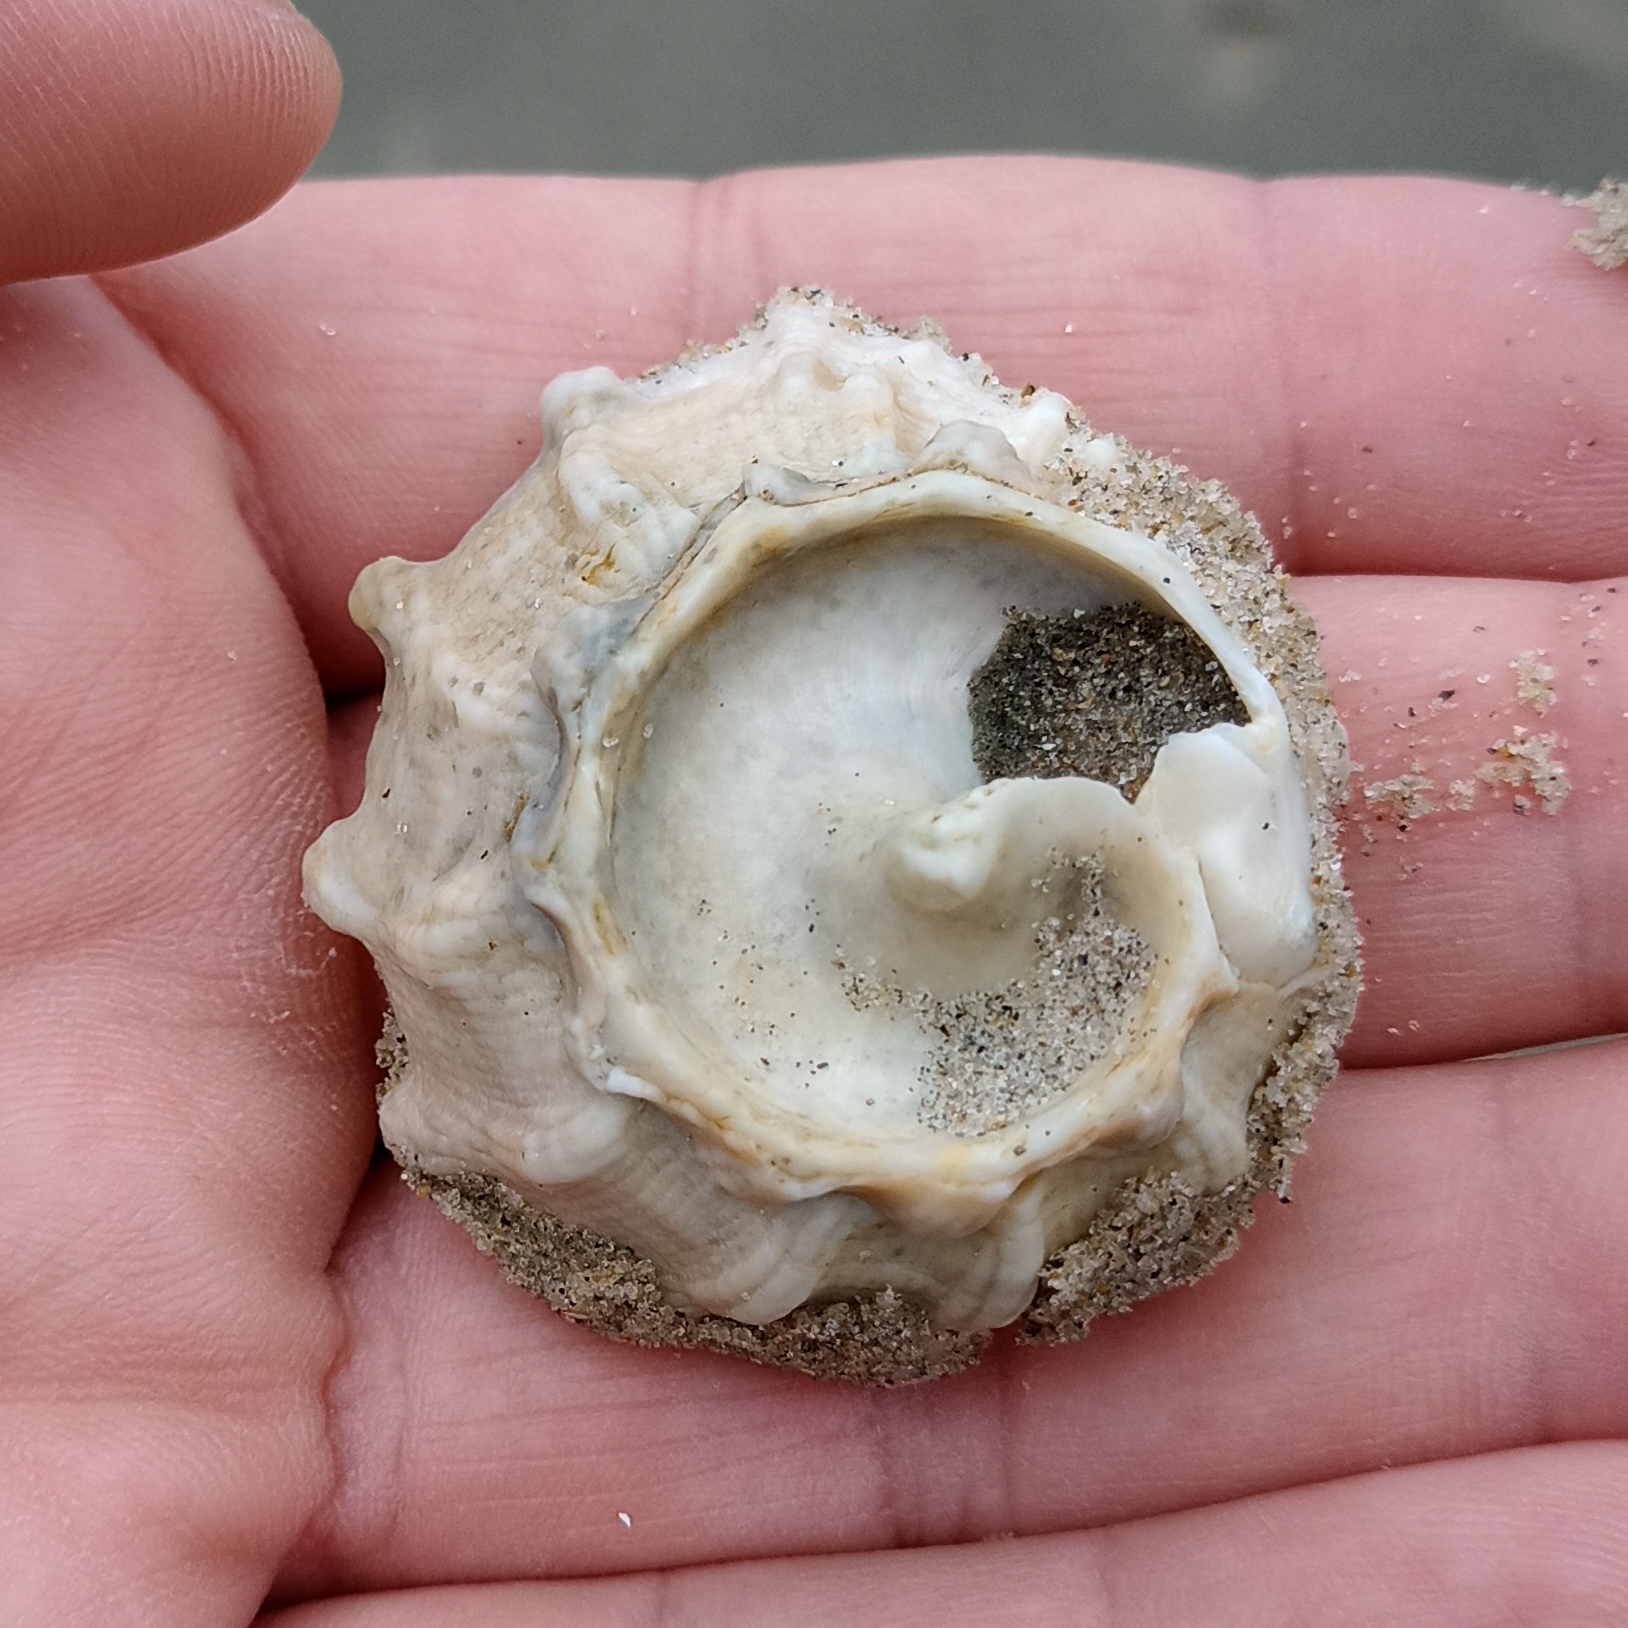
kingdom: Animalia
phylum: Mollusca
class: Gastropoda
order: Trochida
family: Turbinidae
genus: Lithopoma
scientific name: Lithopoma tectum
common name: West indian starsnail
